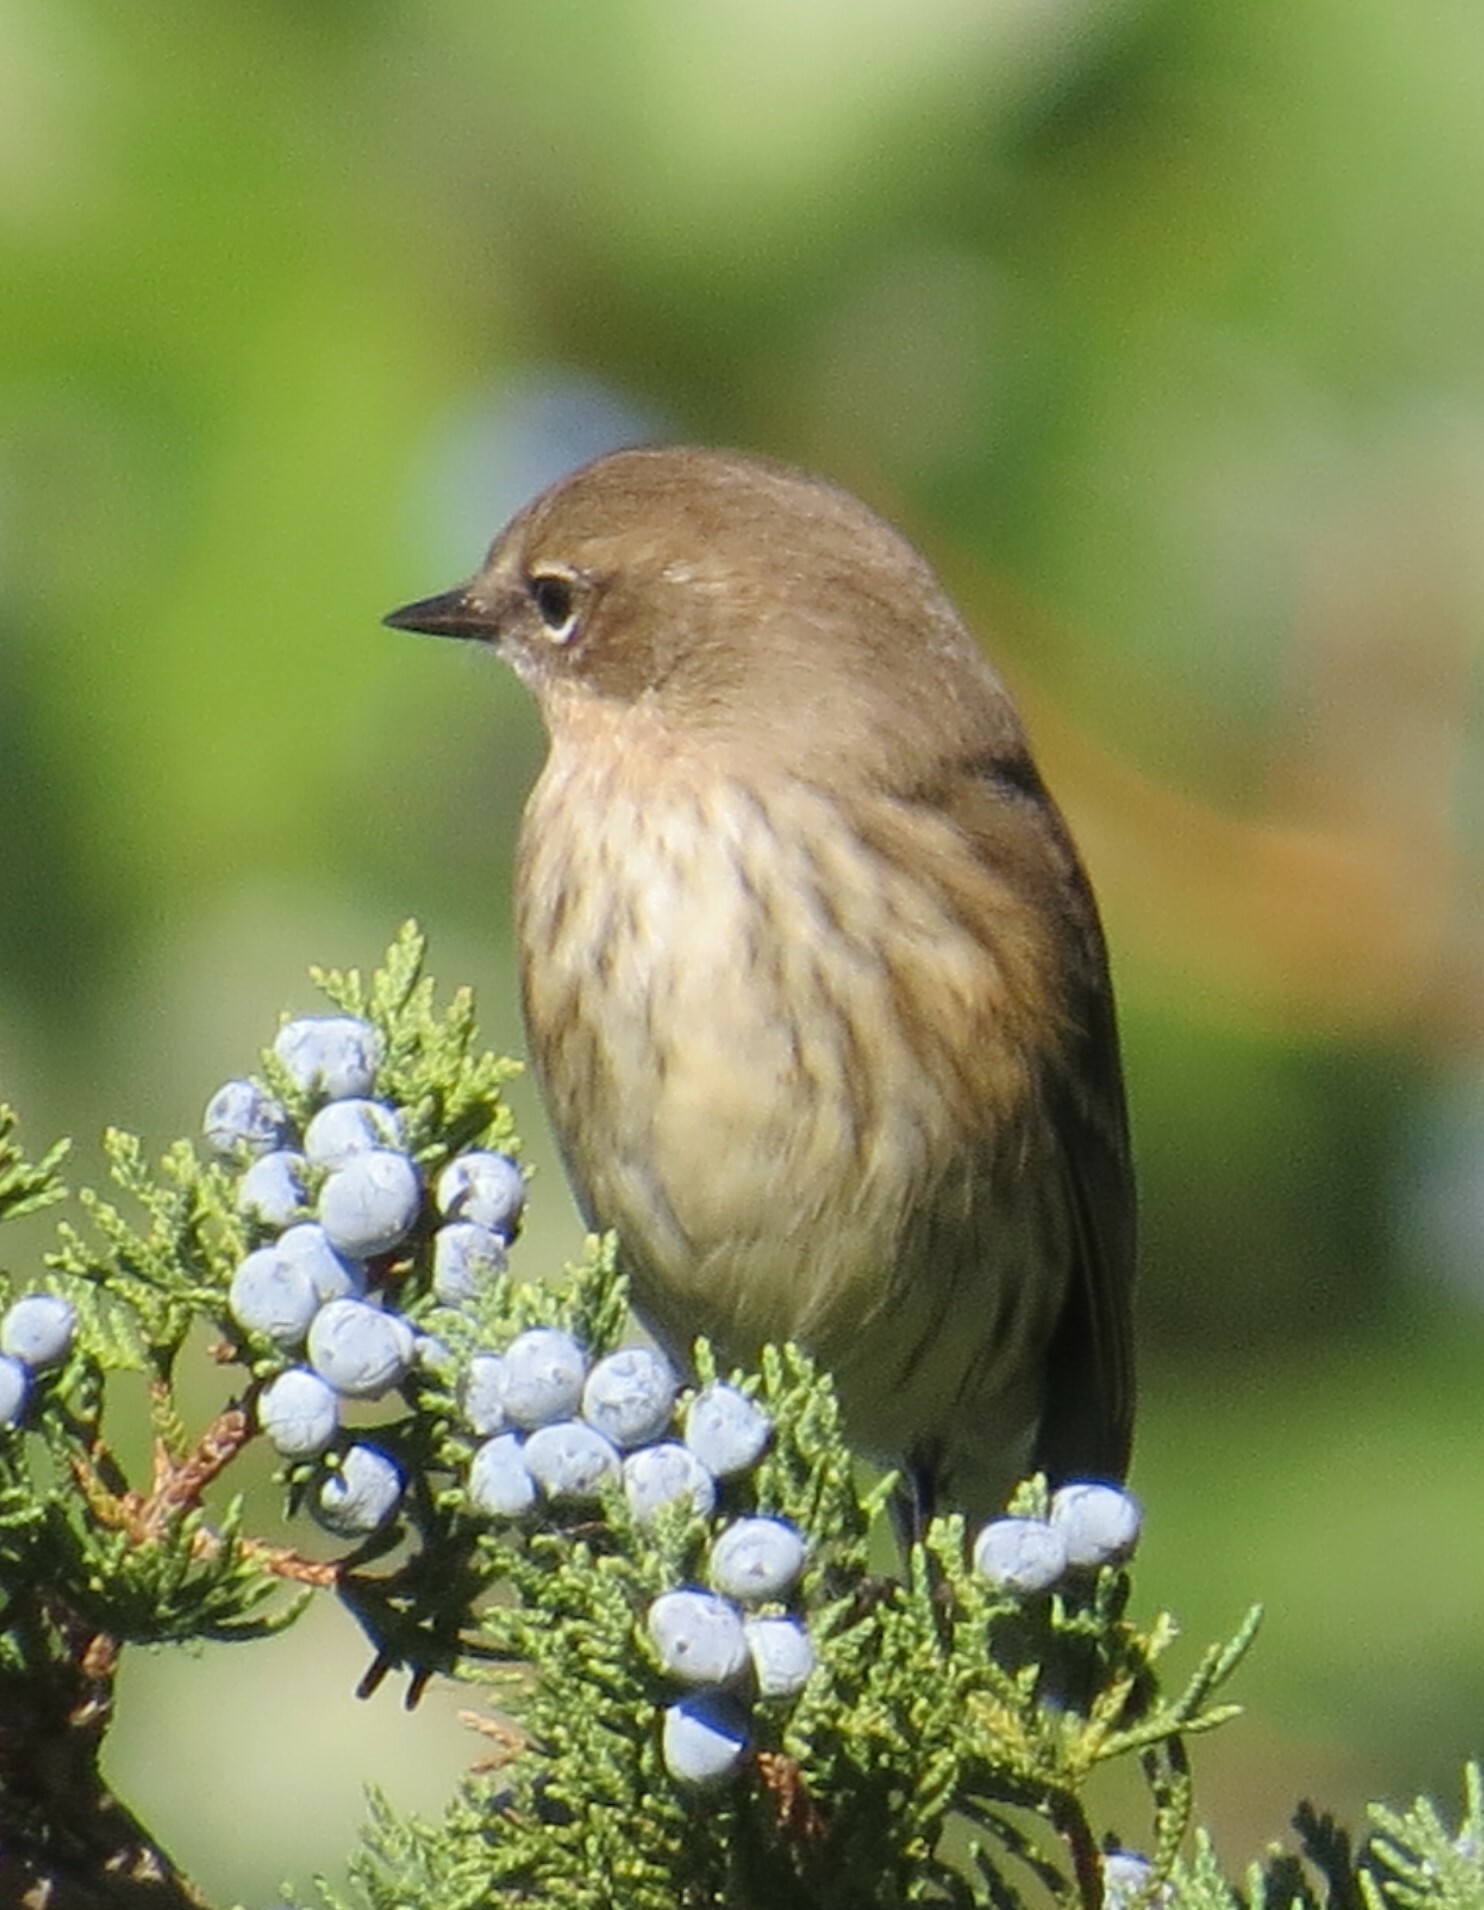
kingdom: Animalia
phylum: Chordata
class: Aves
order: Passeriformes
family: Parulidae
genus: Setophaga
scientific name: Setophaga coronata
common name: Myrtle warbler
